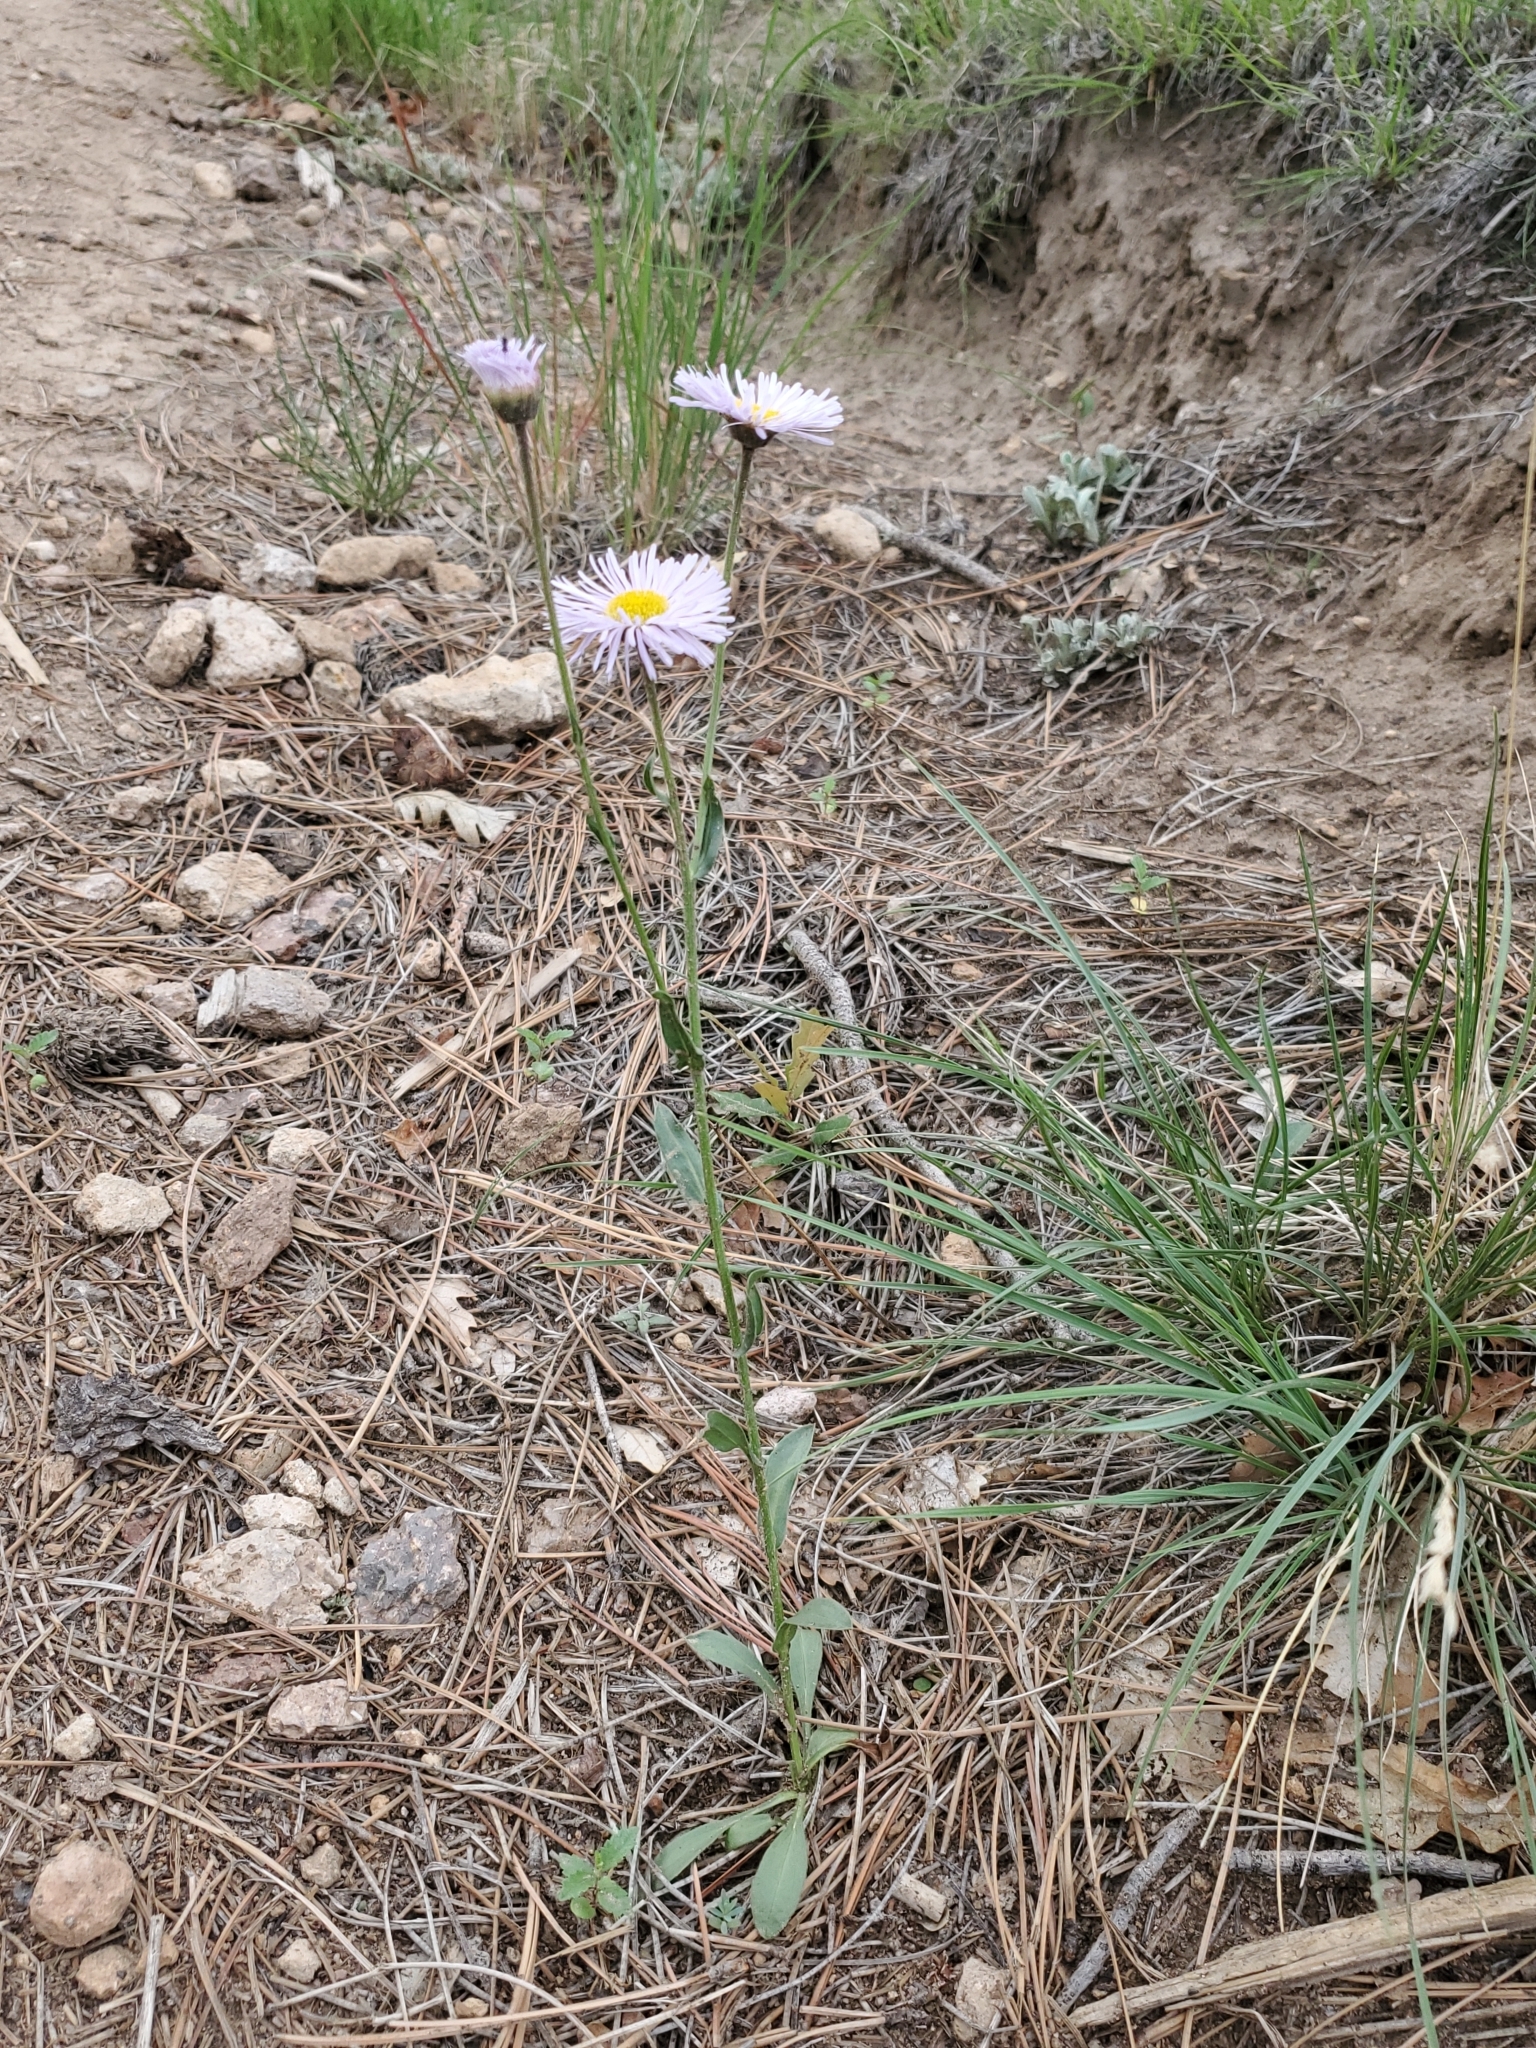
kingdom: Plantae
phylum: Tracheophyta
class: Magnoliopsida
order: Asterales
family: Asteraceae
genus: Erigeron
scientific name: Erigeron speciosus
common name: Aspen fleabane
